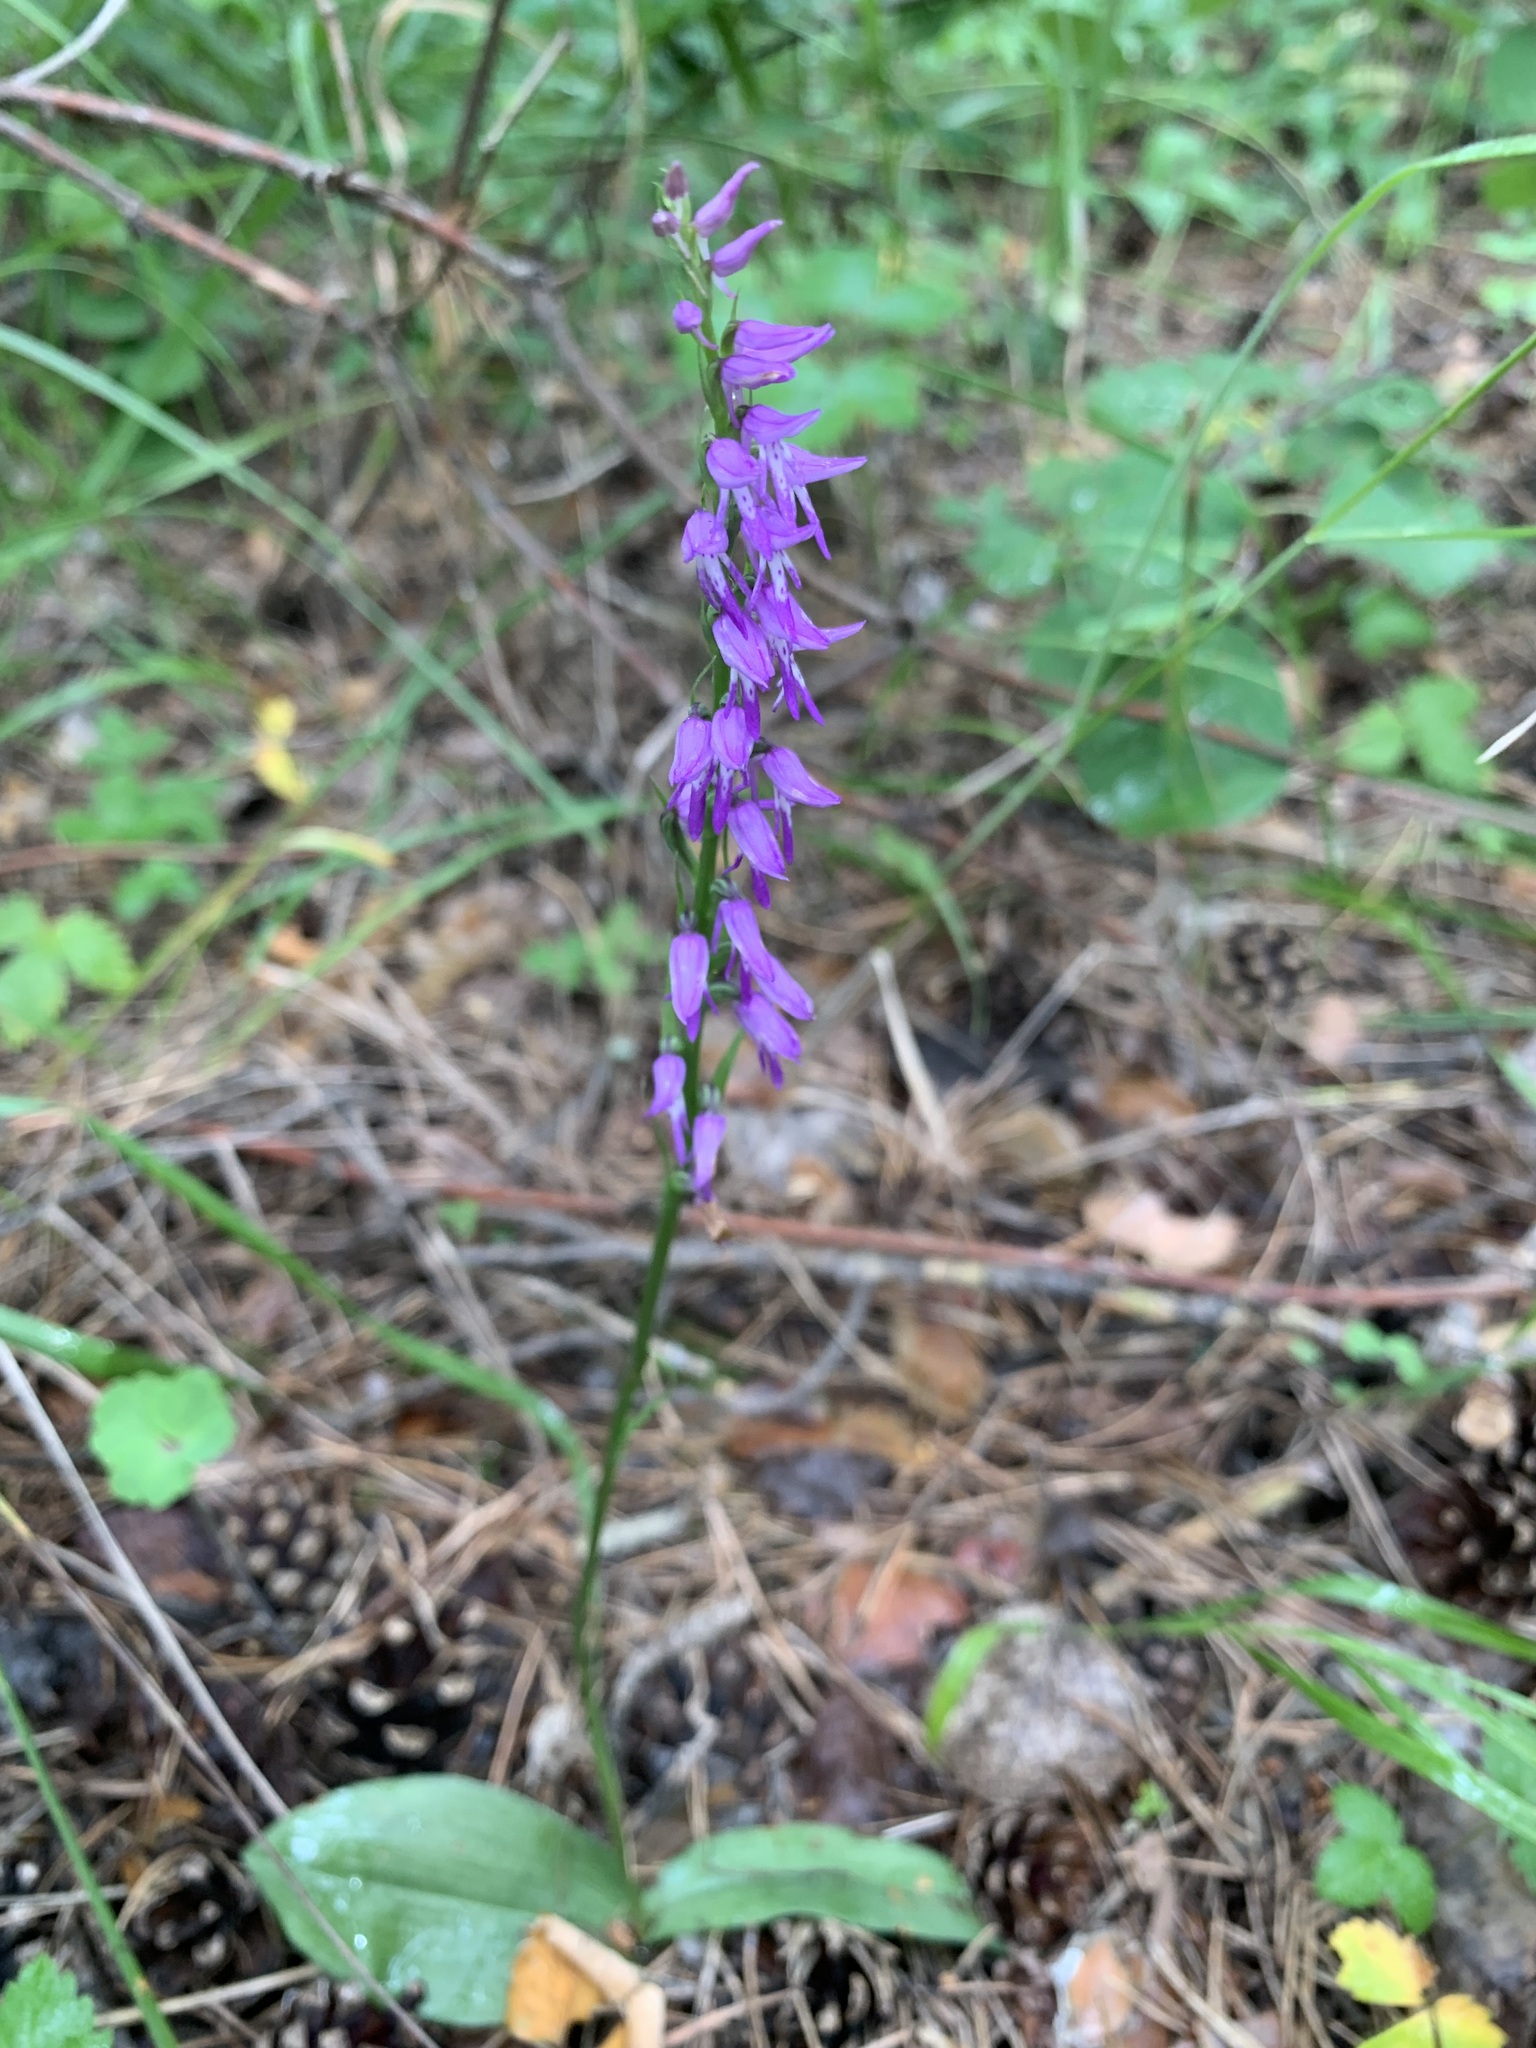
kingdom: Plantae
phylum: Tracheophyta
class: Liliopsida
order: Asparagales
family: Orchidaceae
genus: Hemipilia
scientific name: Hemipilia cucullata
